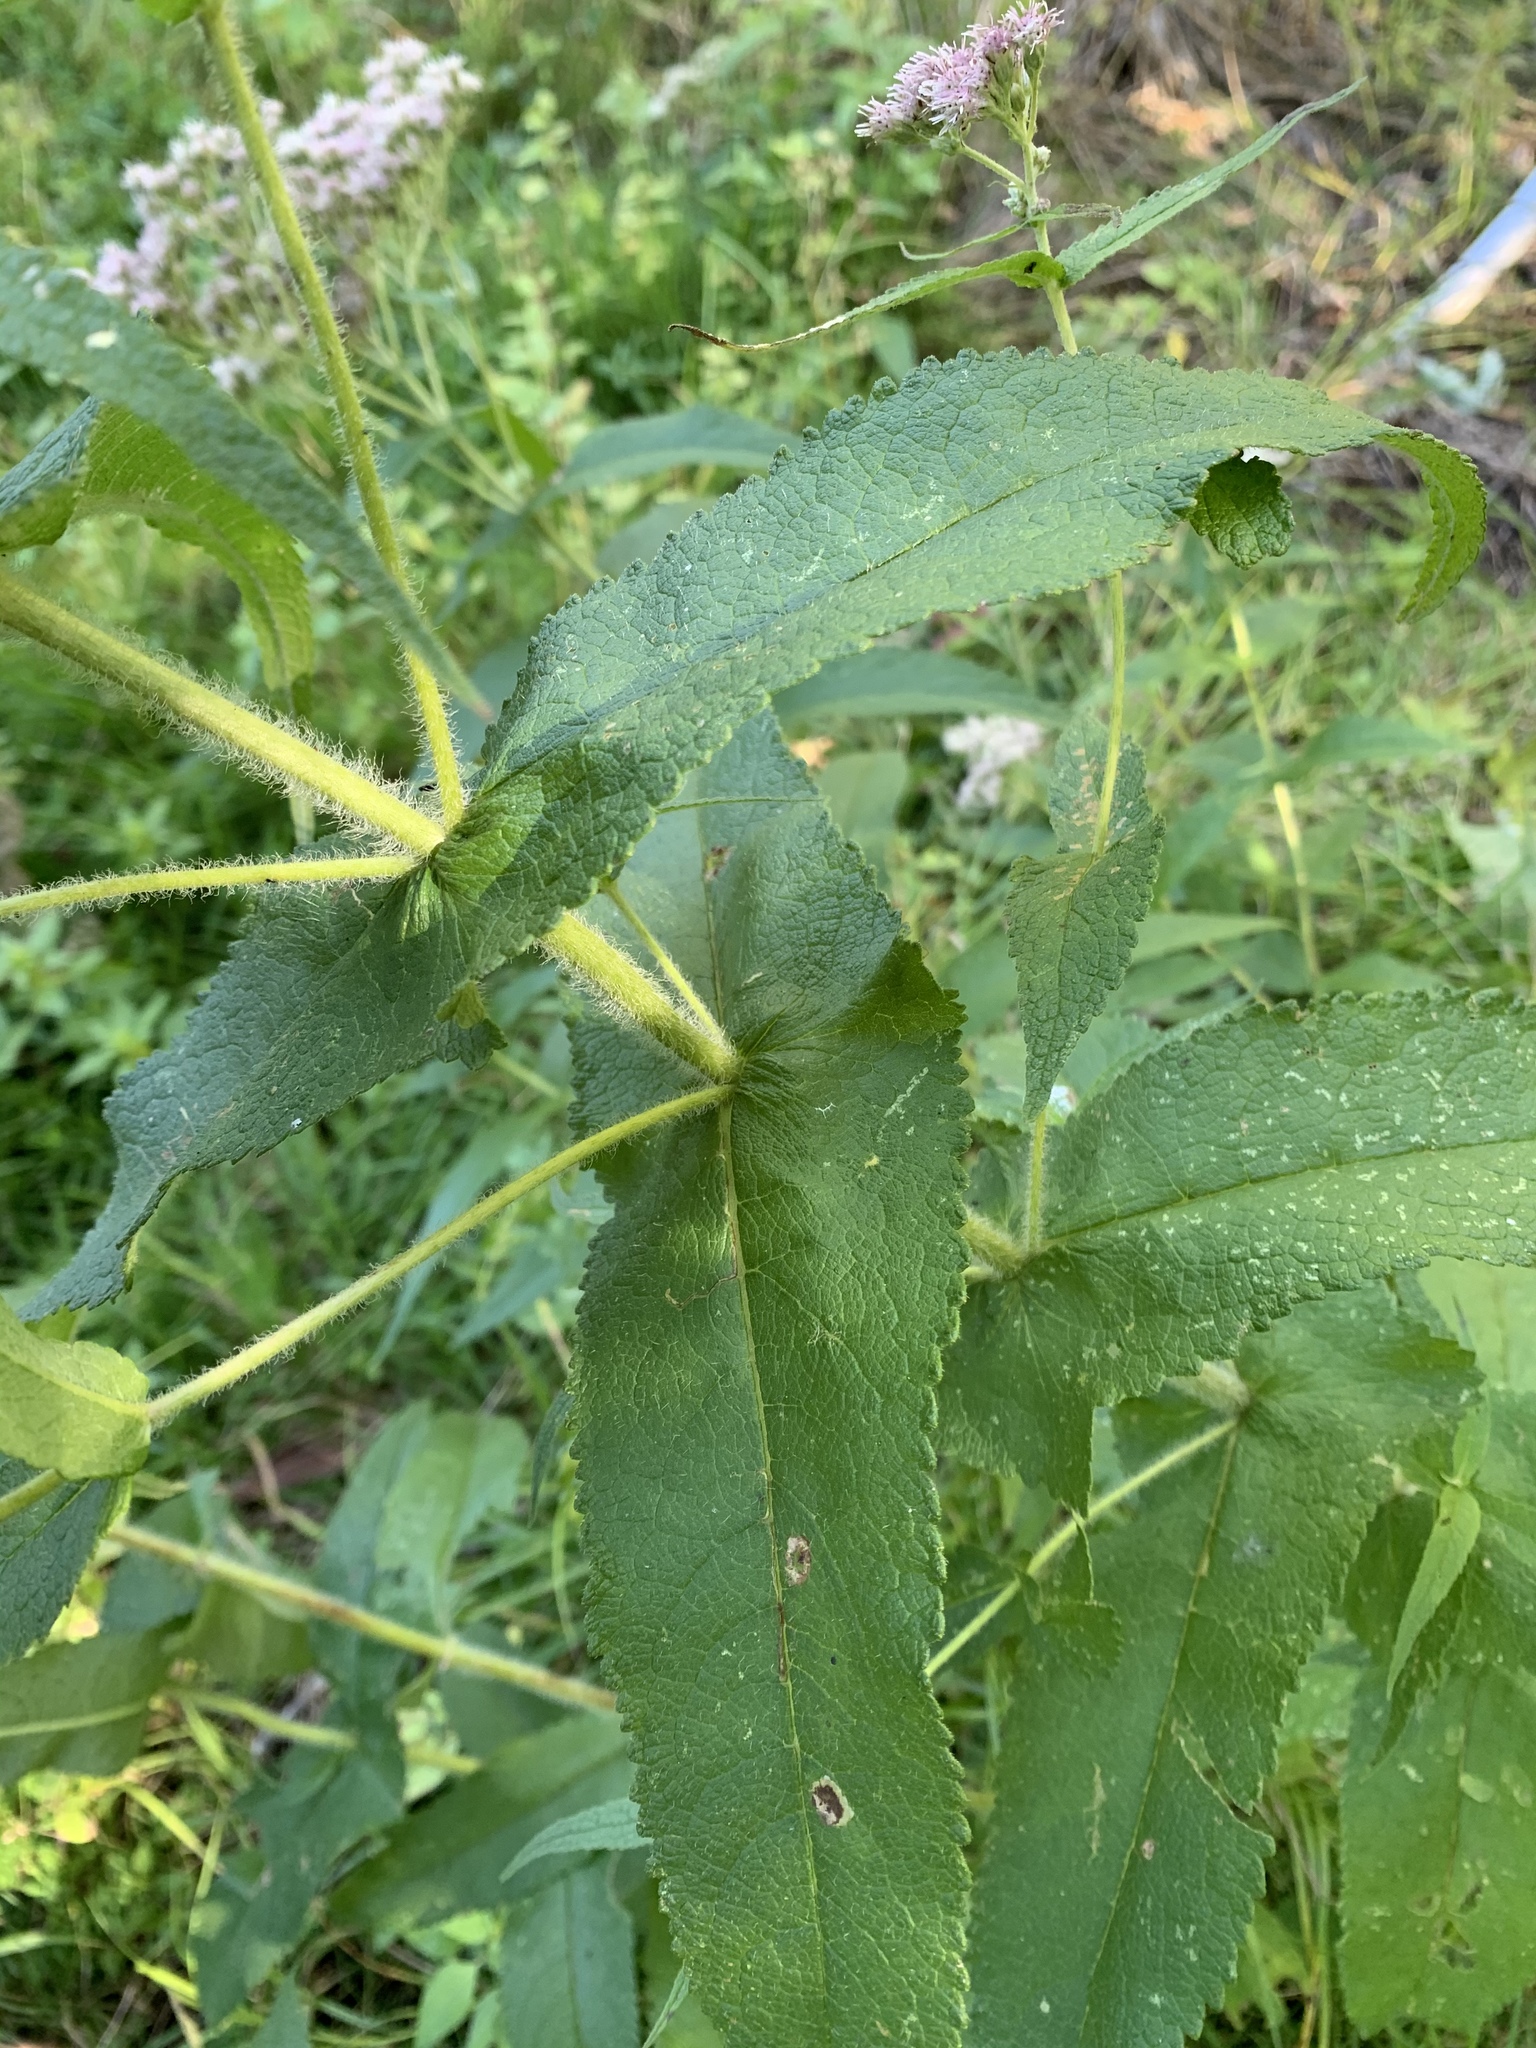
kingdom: Plantae
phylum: Tracheophyta
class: Magnoliopsida
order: Asterales
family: Asteraceae
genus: Eupatorium
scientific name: Eupatorium perfoliatum
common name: Boneset
